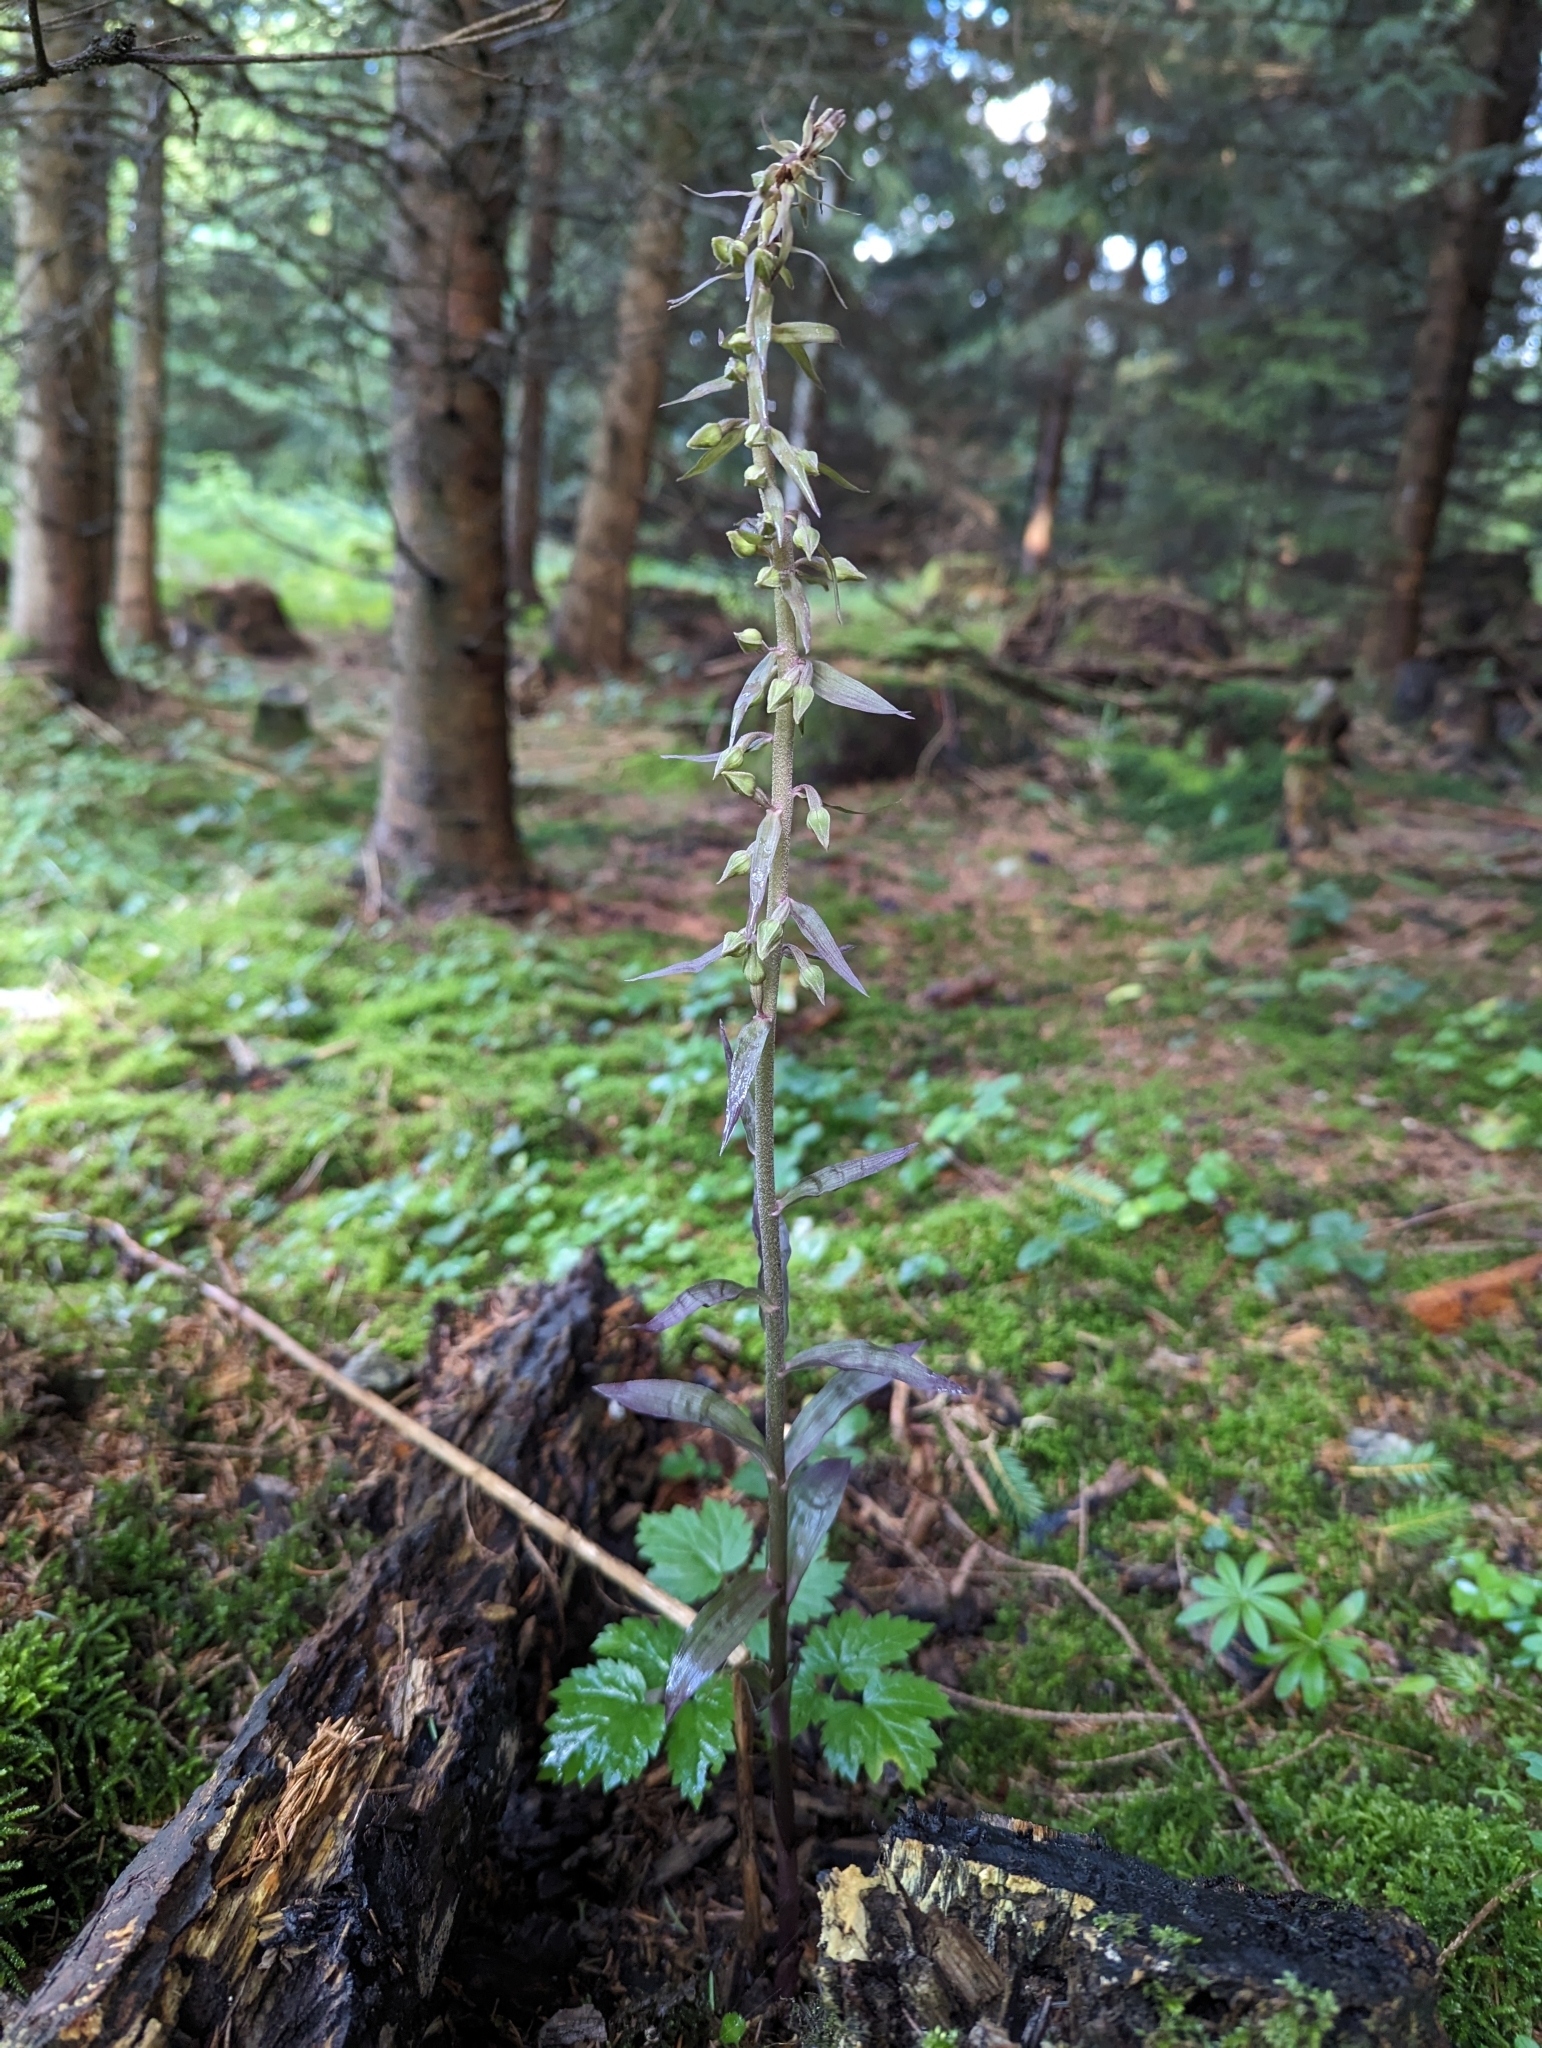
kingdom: Plantae
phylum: Tracheophyta
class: Liliopsida
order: Asparagales
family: Orchidaceae
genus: Epipactis
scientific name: Epipactis purpurata
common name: Violet helleborine
